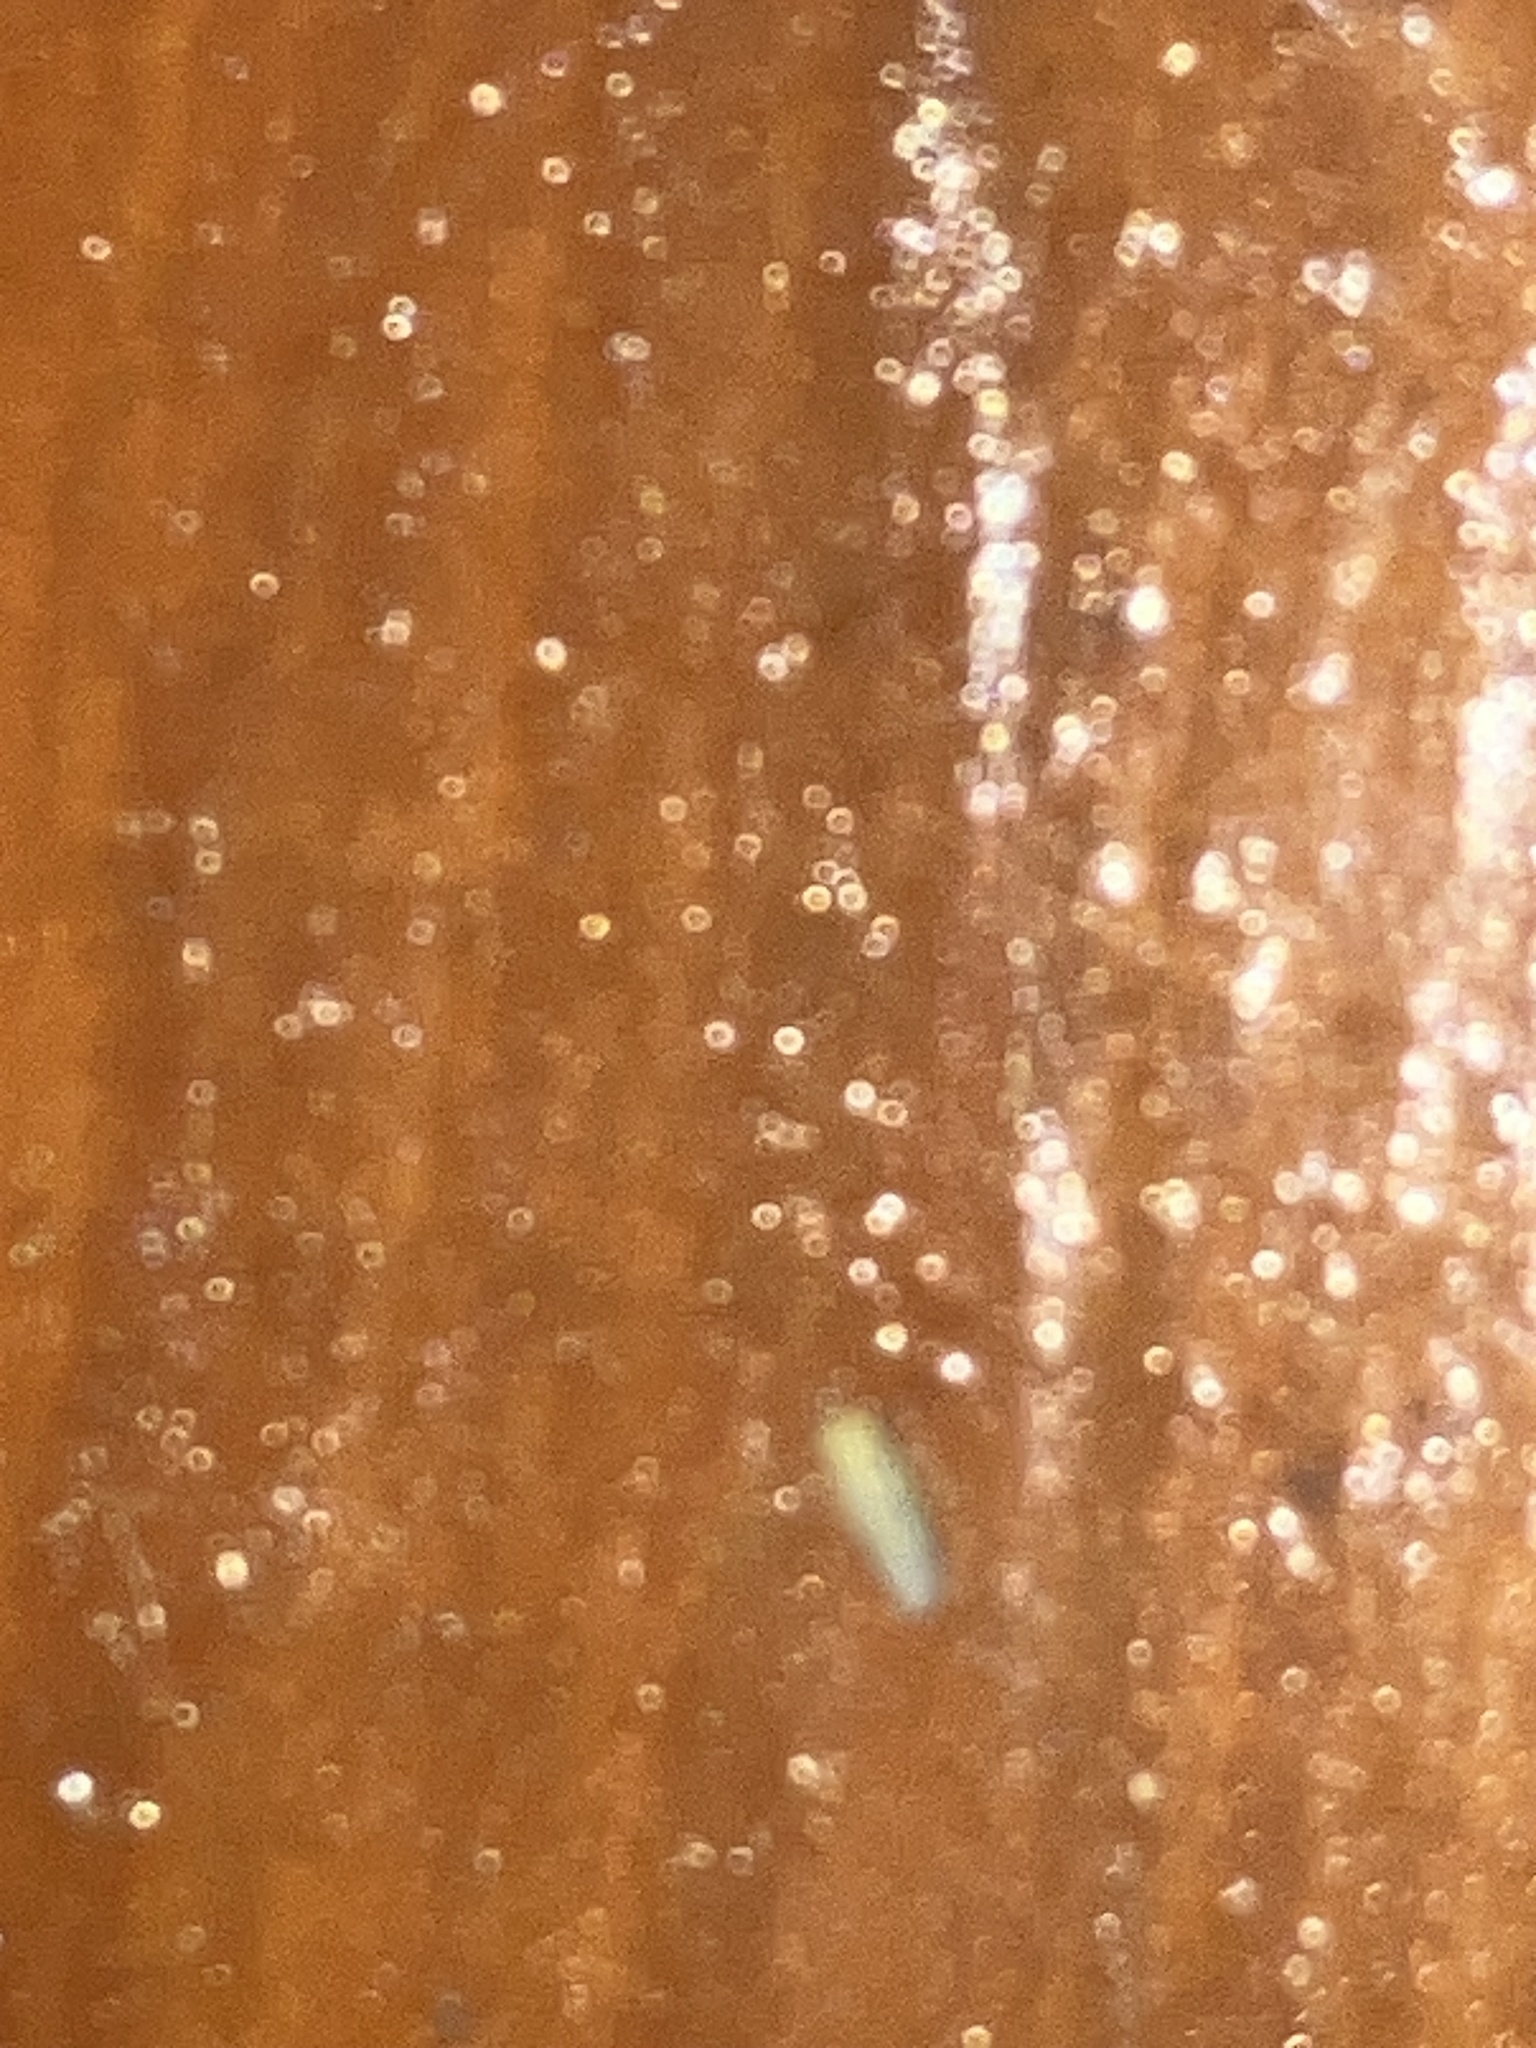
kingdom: Animalia
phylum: Arthropoda
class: Insecta
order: Hemiptera
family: Cicadellidae
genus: Graminella
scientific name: Graminella cognita
